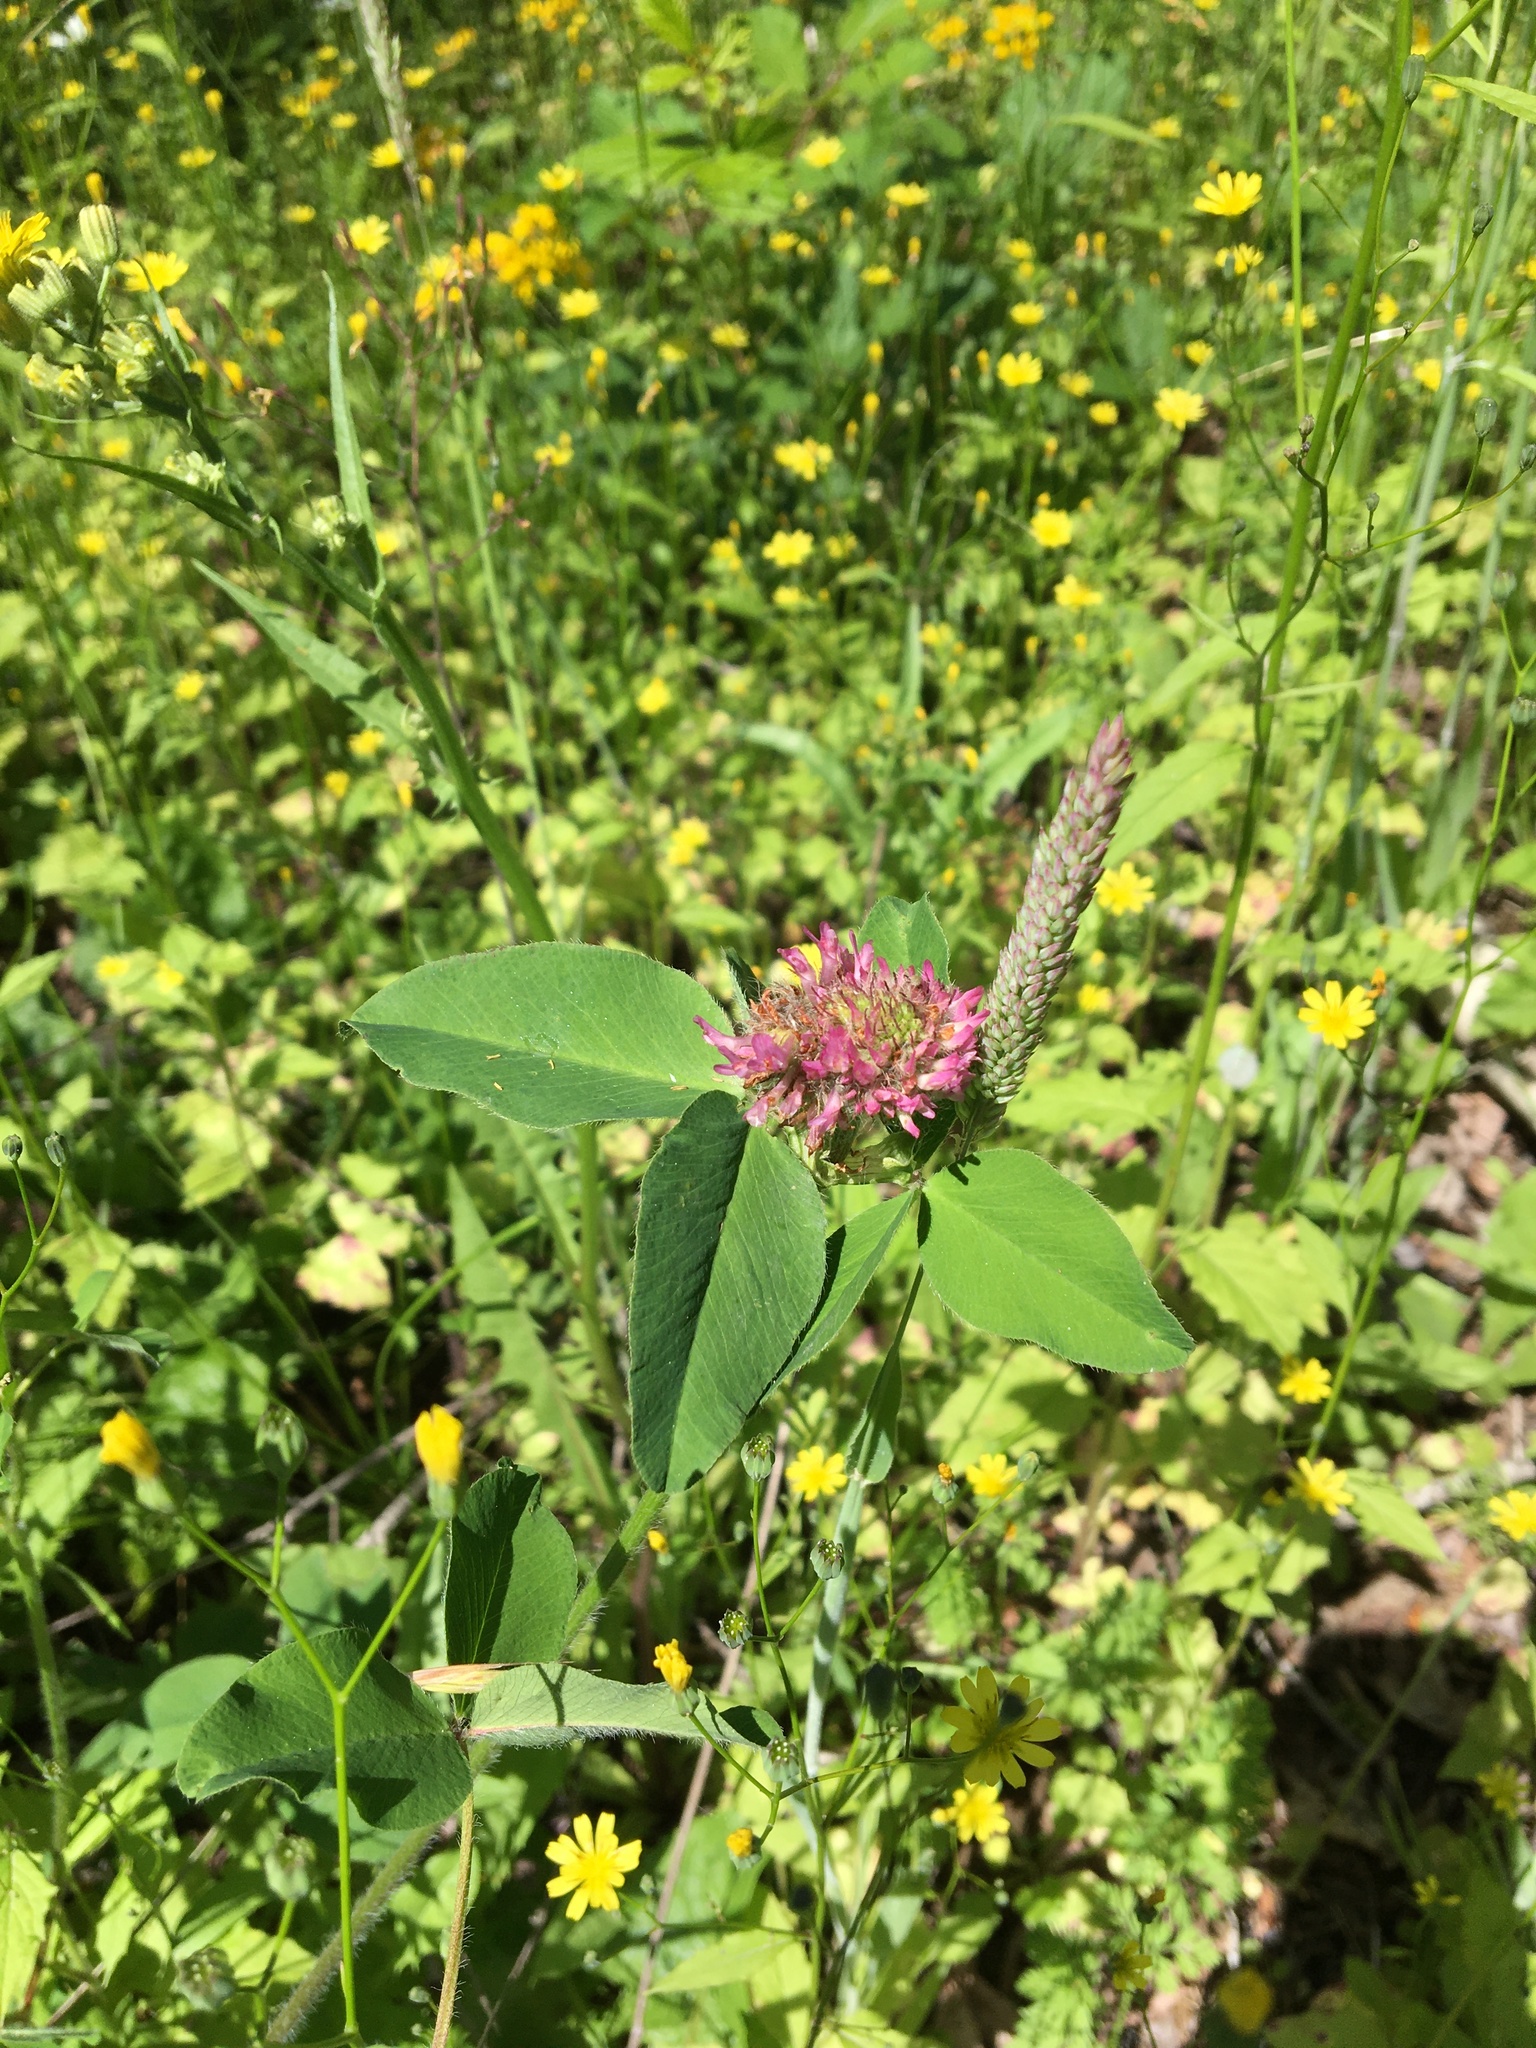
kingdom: Plantae
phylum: Tracheophyta
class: Magnoliopsida
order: Fabales
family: Fabaceae
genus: Trifolium
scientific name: Trifolium pratense
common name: Red clover
